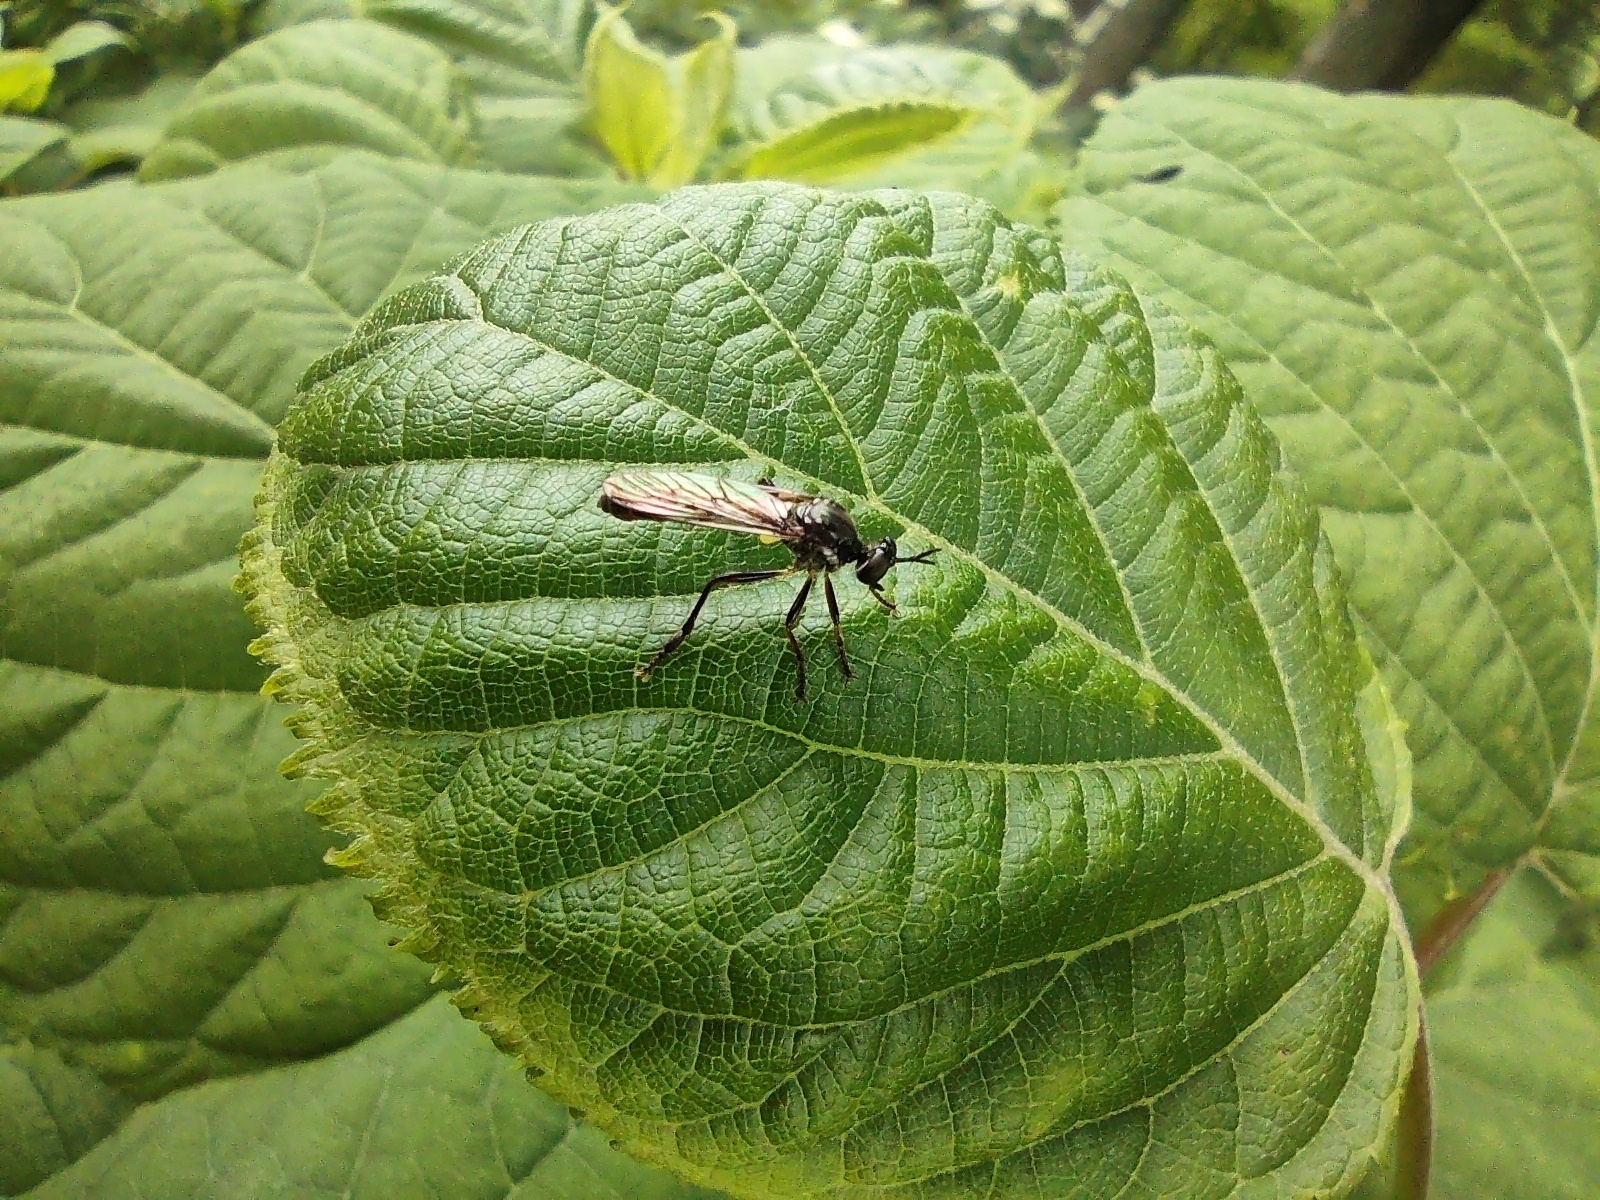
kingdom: Animalia
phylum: Arthropoda
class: Insecta
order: Diptera
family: Asilidae
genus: Dioctria
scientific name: Dioctria hyalipennis
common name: Stripe-legged robberfly
